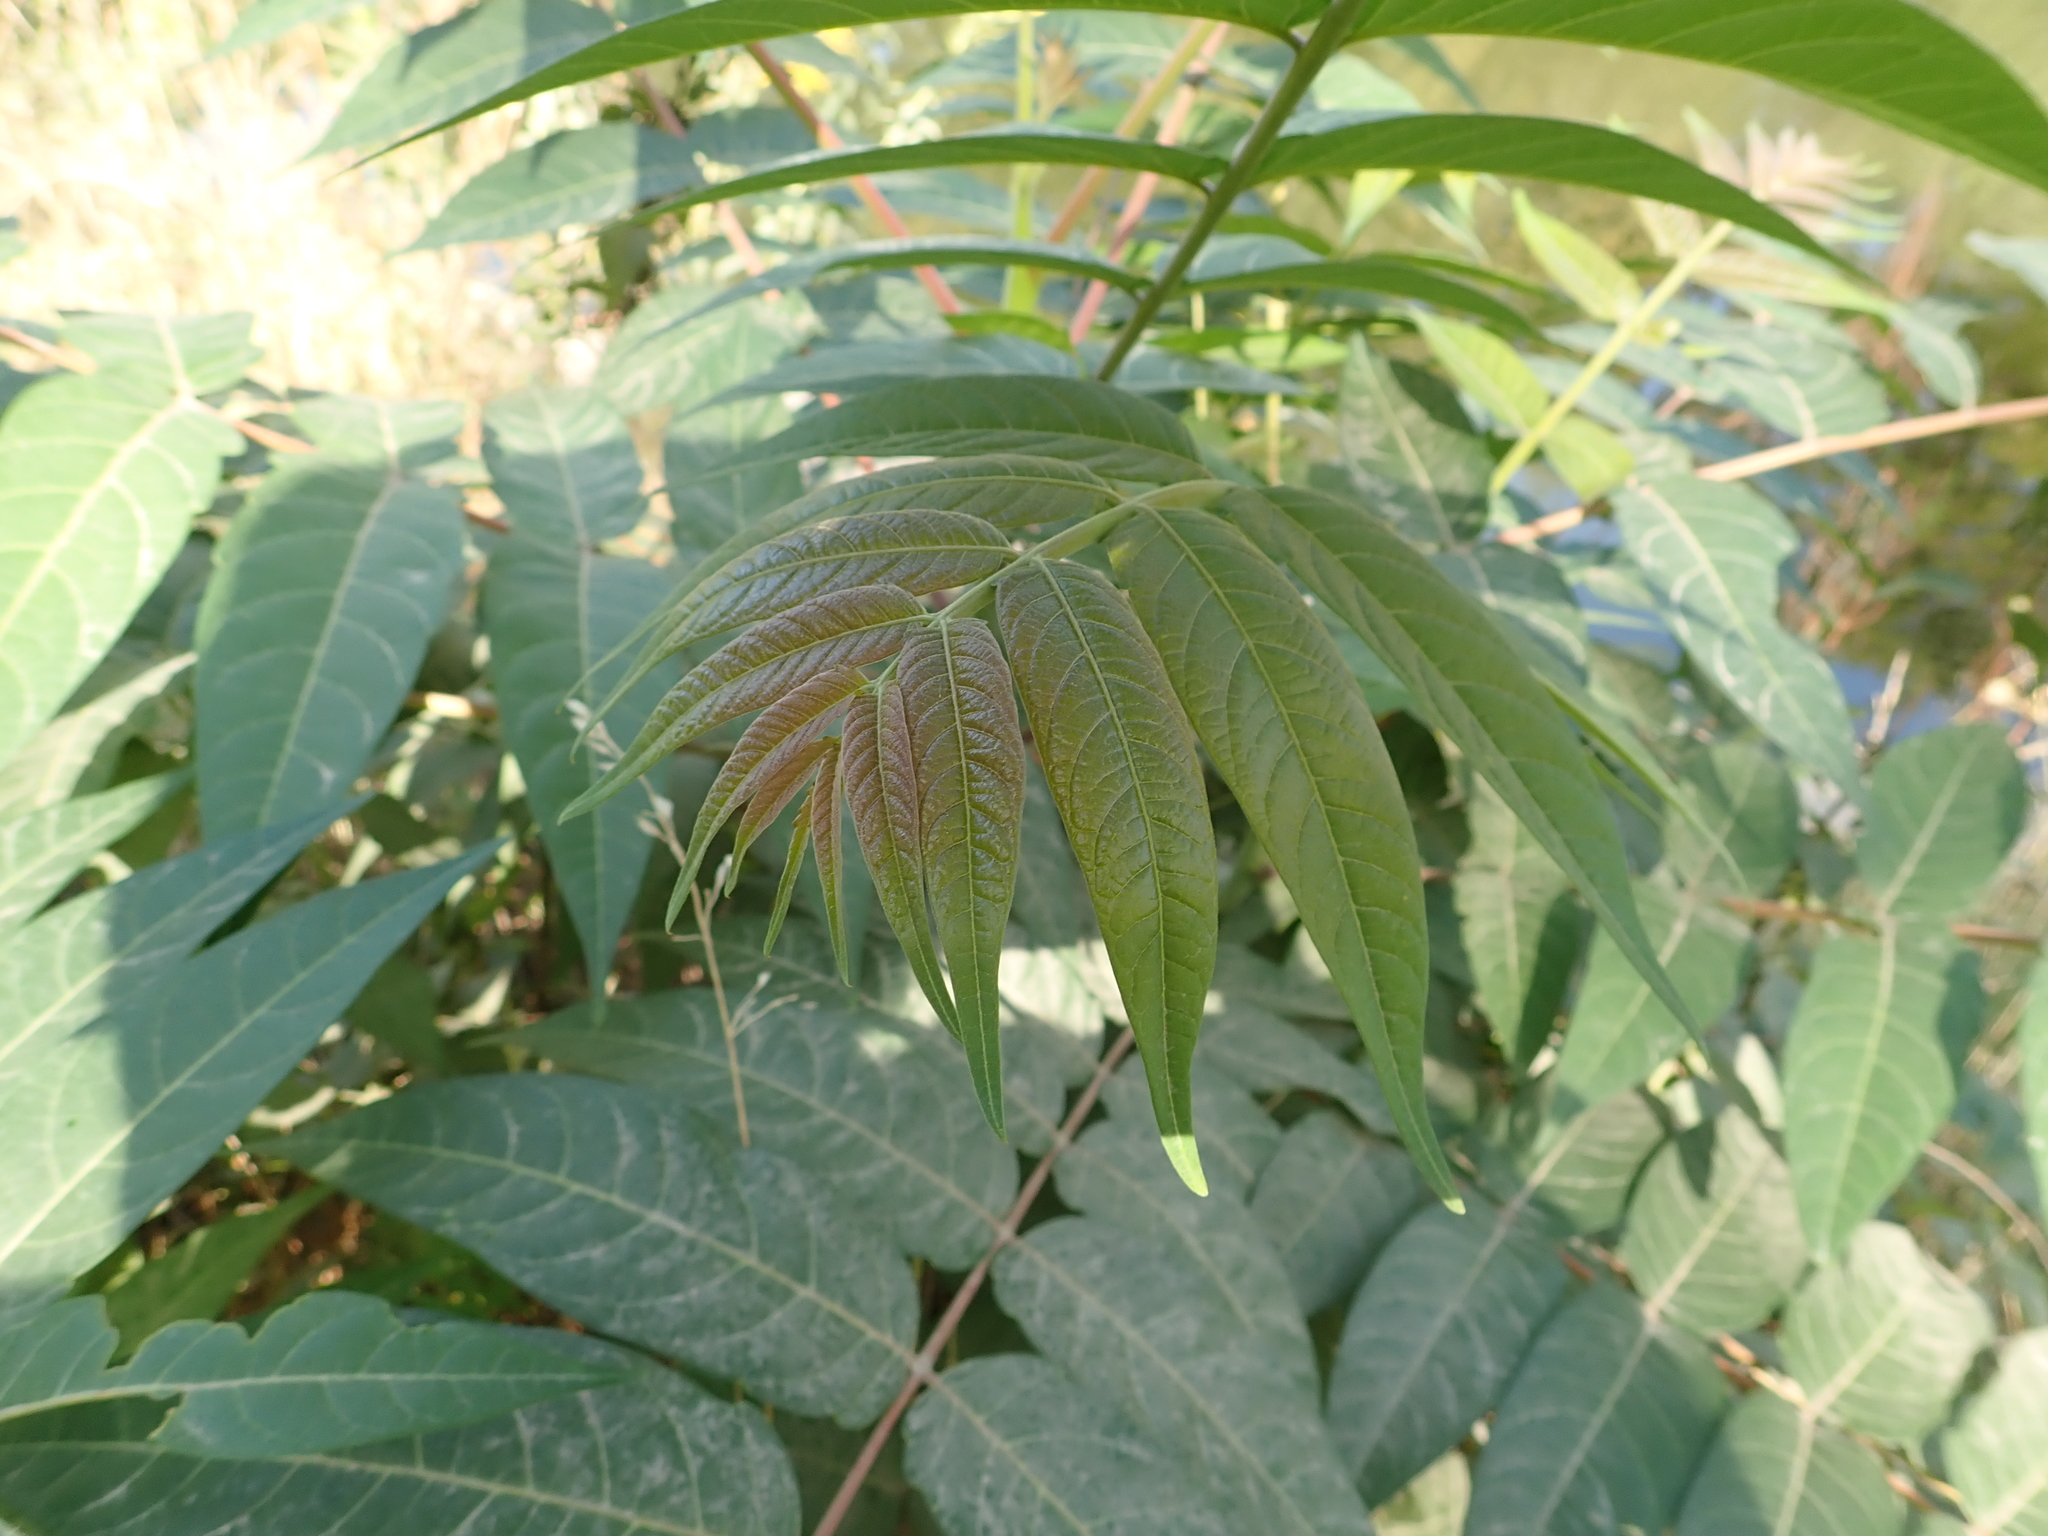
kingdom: Plantae
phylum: Tracheophyta
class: Magnoliopsida
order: Sapindales
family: Simaroubaceae
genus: Ailanthus
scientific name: Ailanthus altissima
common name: Tree-of-heaven
